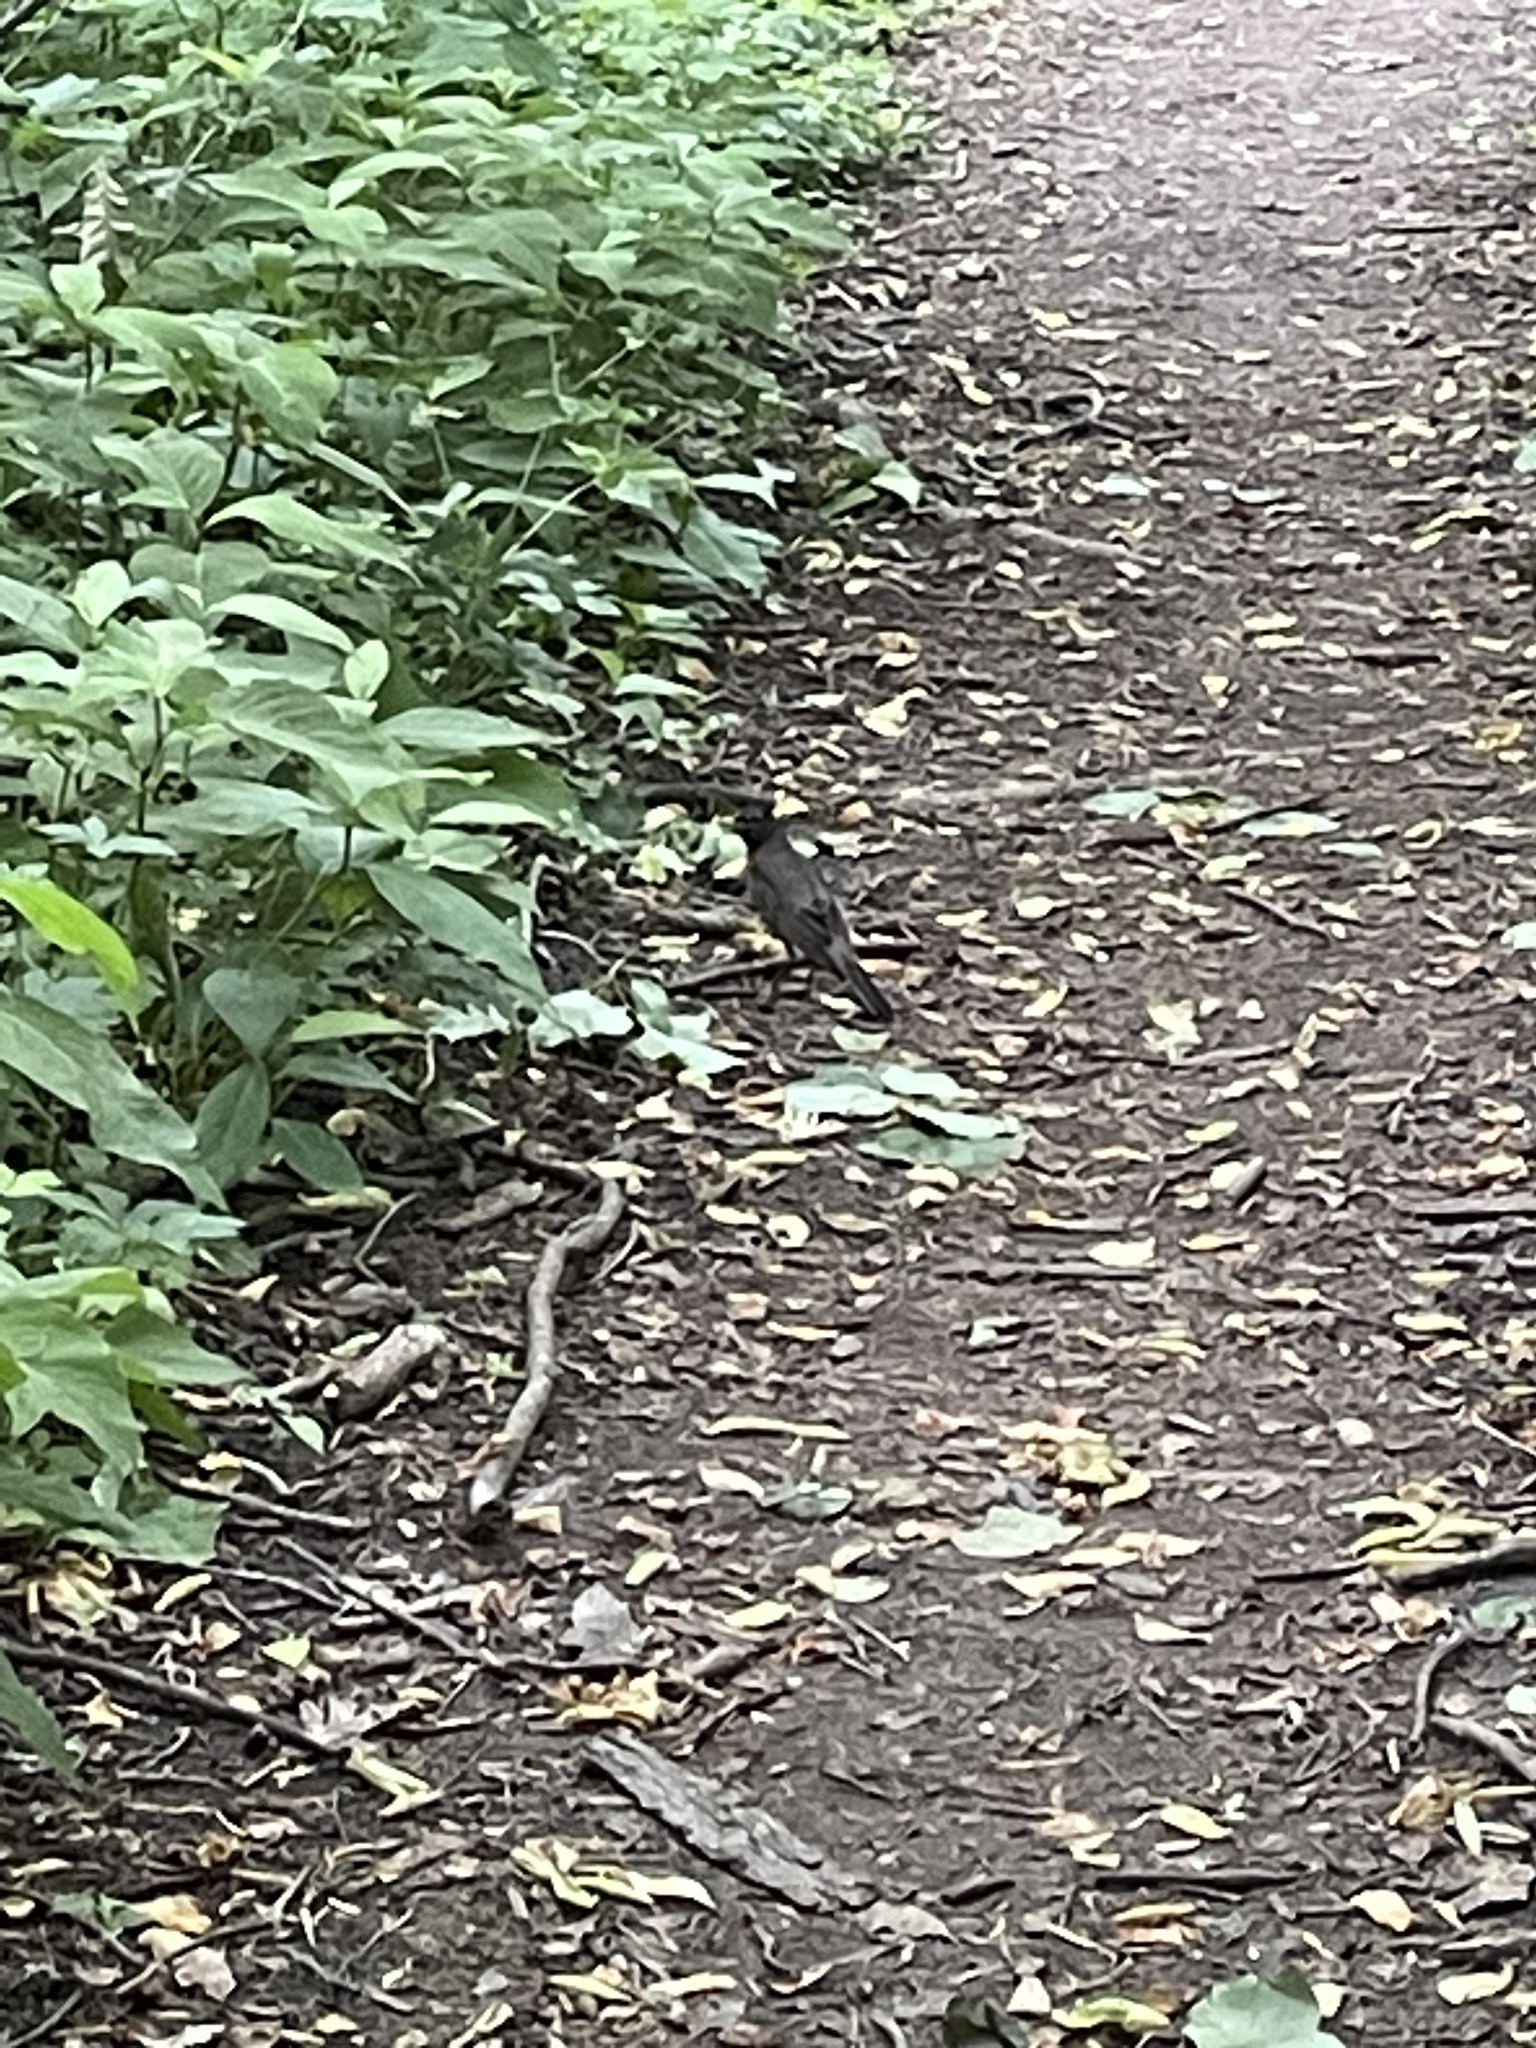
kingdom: Animalia
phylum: Chordata
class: Aves
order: Passeriformes
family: Turdidae
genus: Turdus
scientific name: Turdus migratorius
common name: American robin
